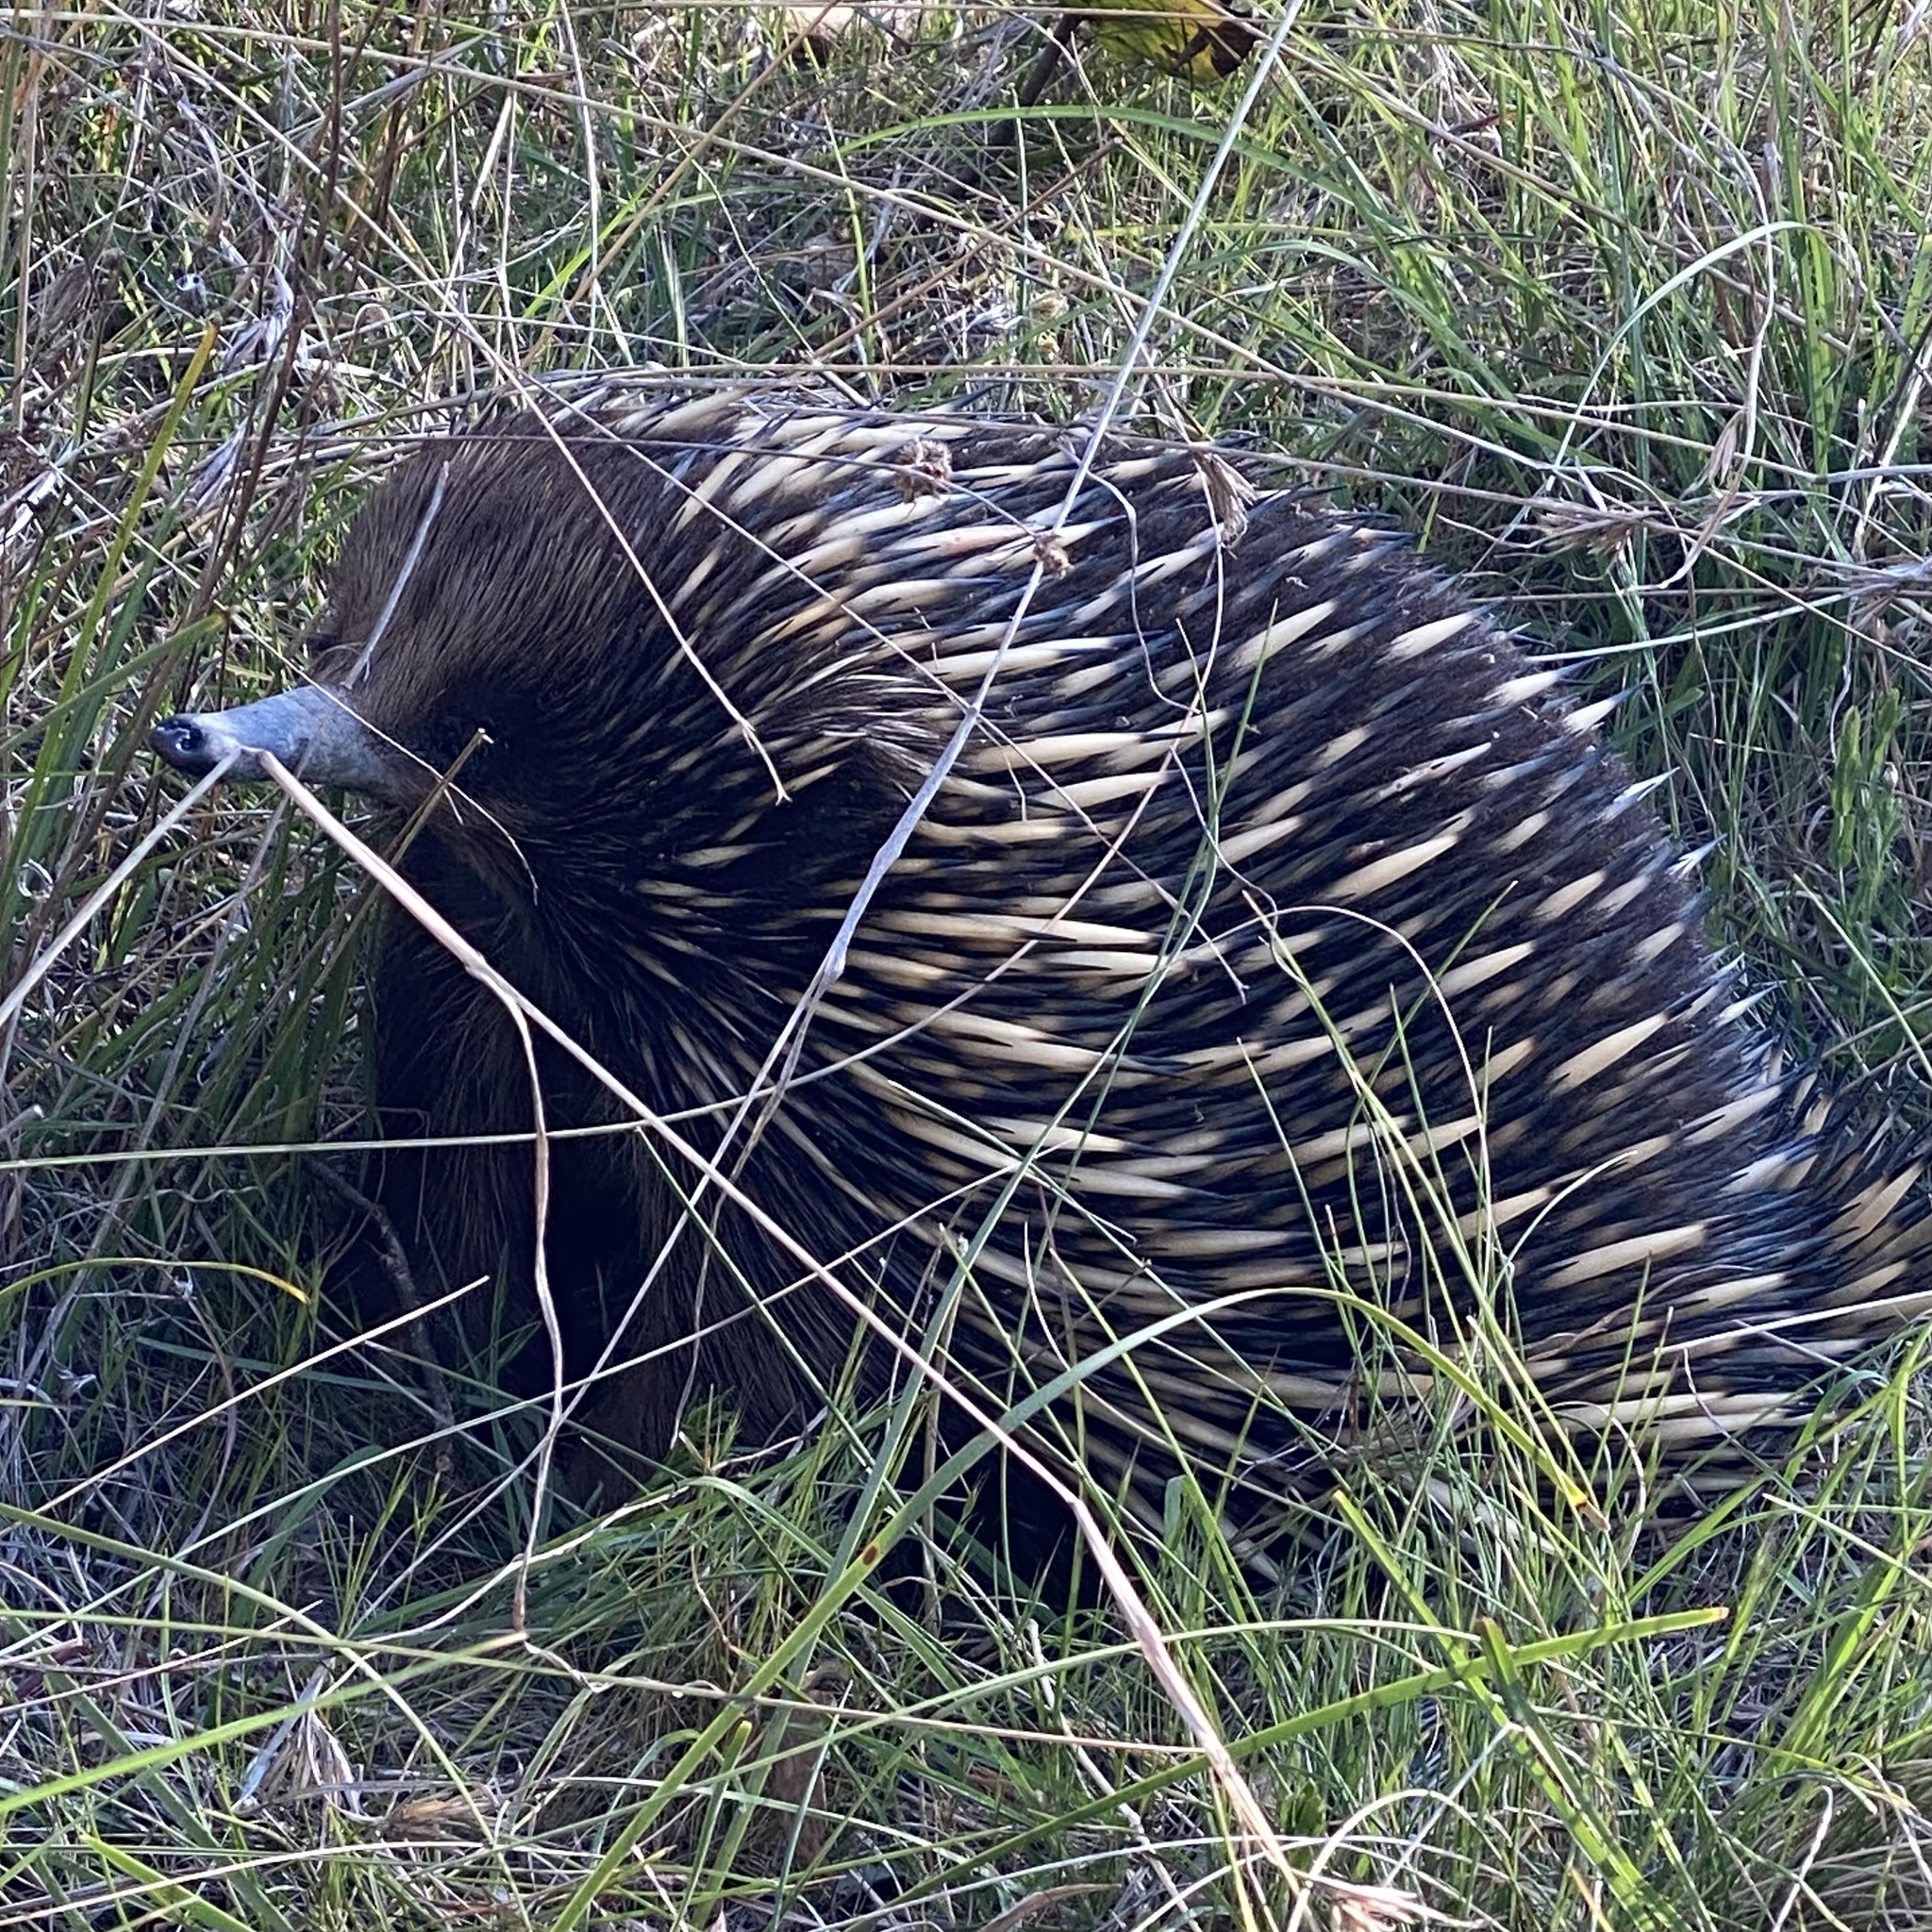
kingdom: Animalia
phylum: Chordata
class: Mammalia
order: Monotremata
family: Tachyglossidae
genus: Tachyglossus
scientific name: Tachyglossus aculeatus
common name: Short-beaked echidna
